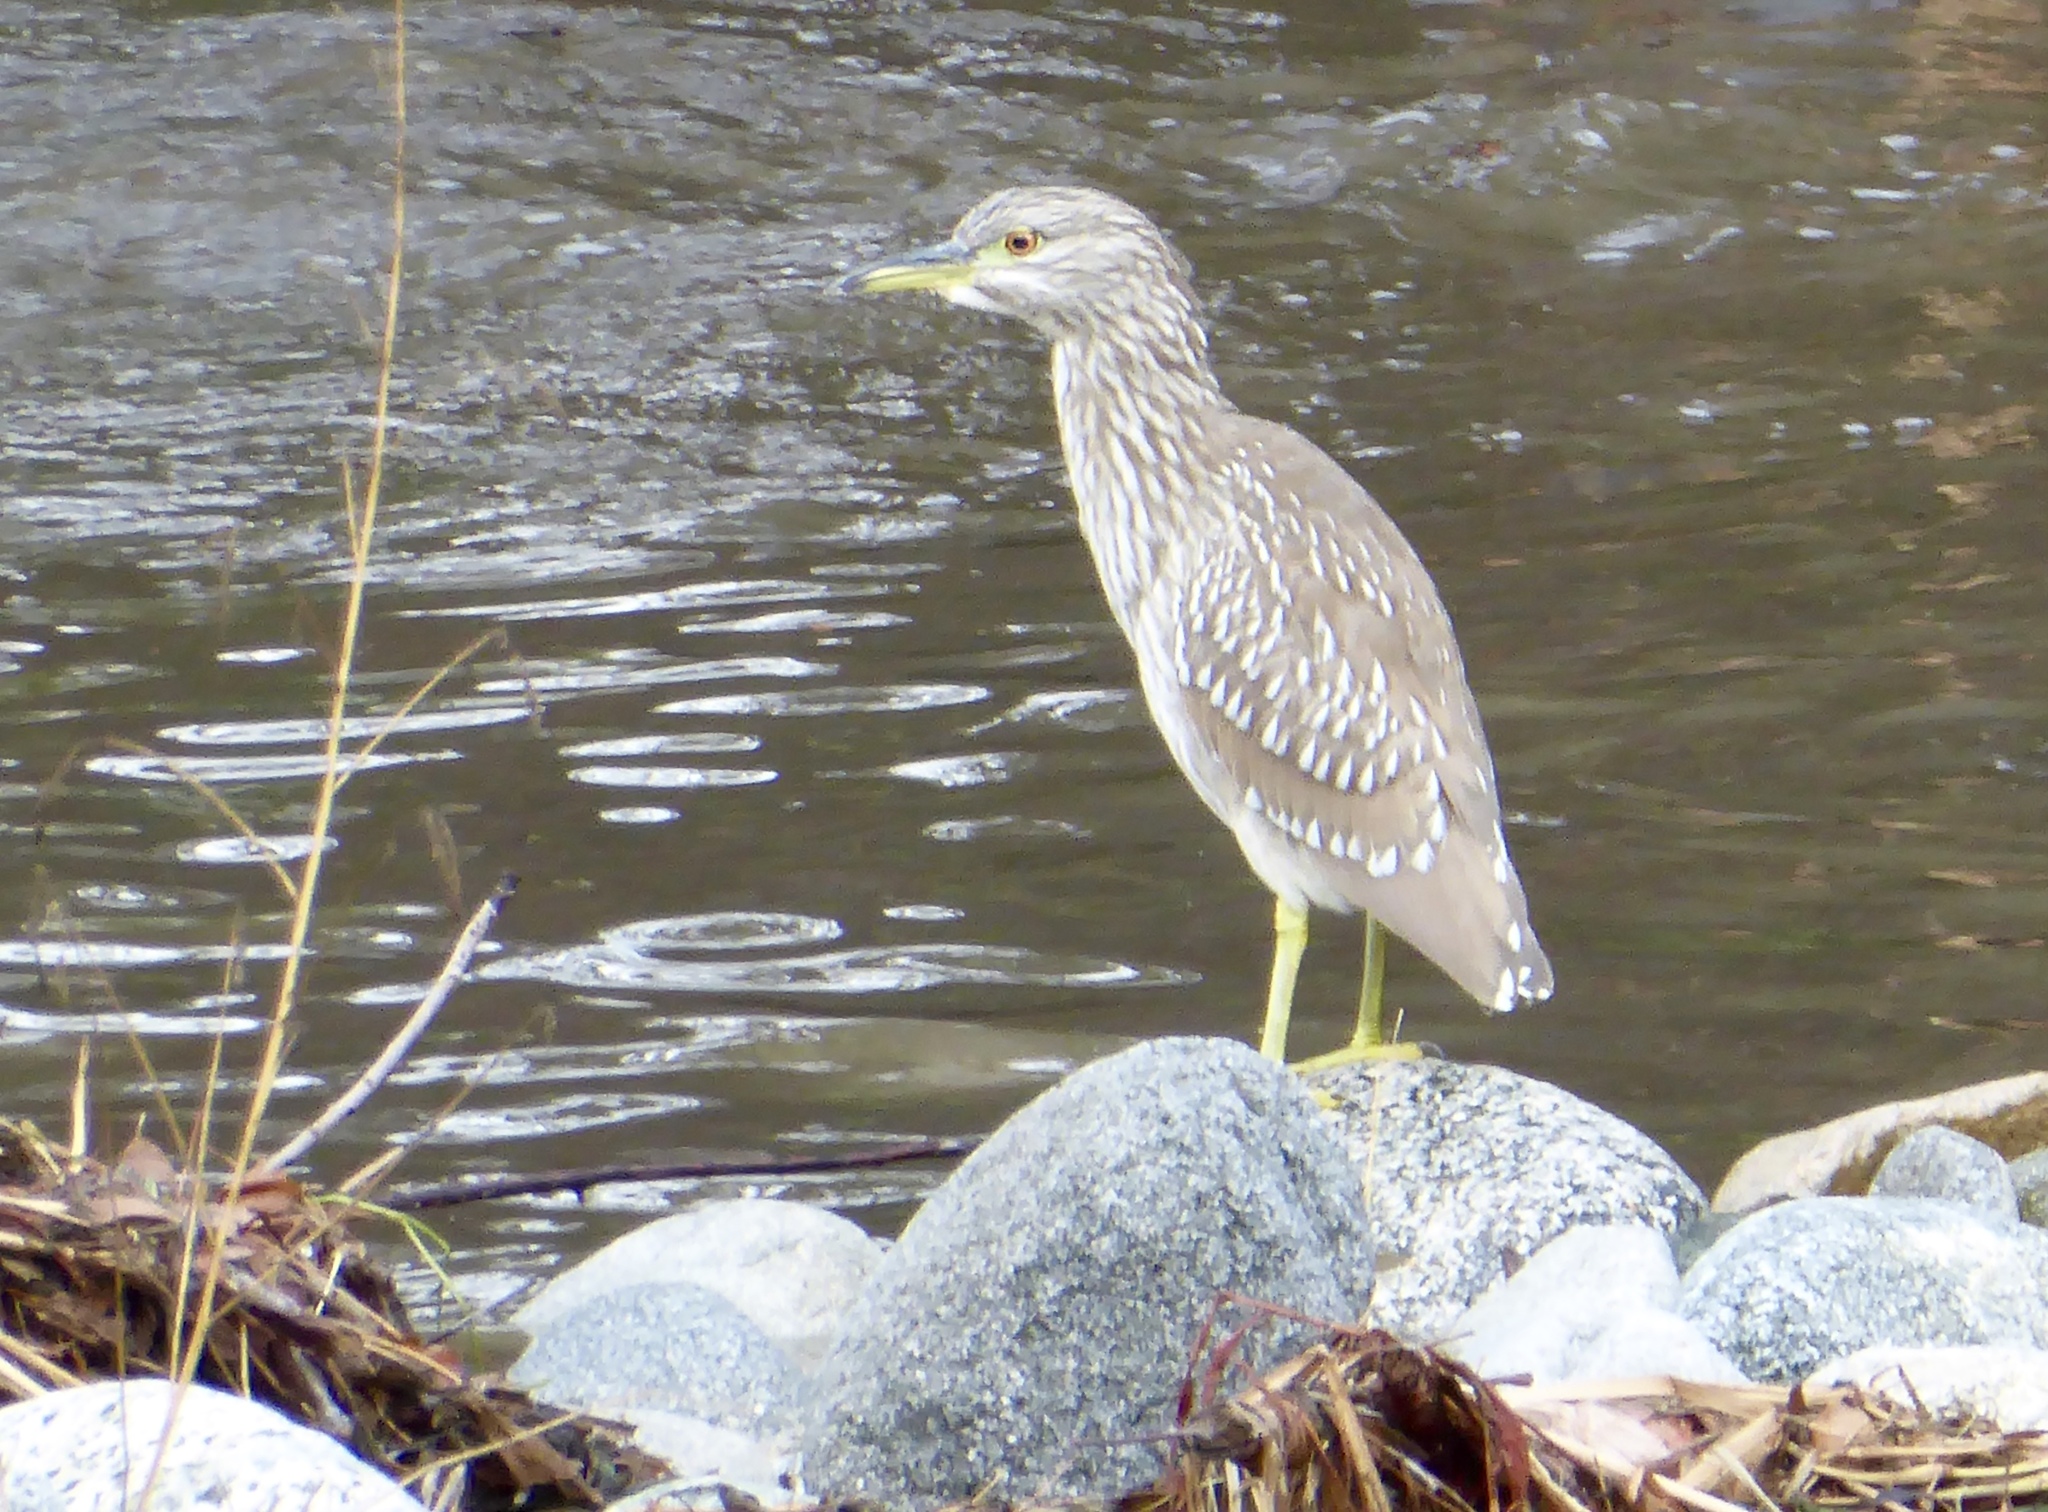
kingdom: Animalia
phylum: Chordata
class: Aves
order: Pelecaniformes
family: Ardeidae
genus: Nycticorax
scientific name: Nycticorax nycticorax
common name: Black-crowned night heron
